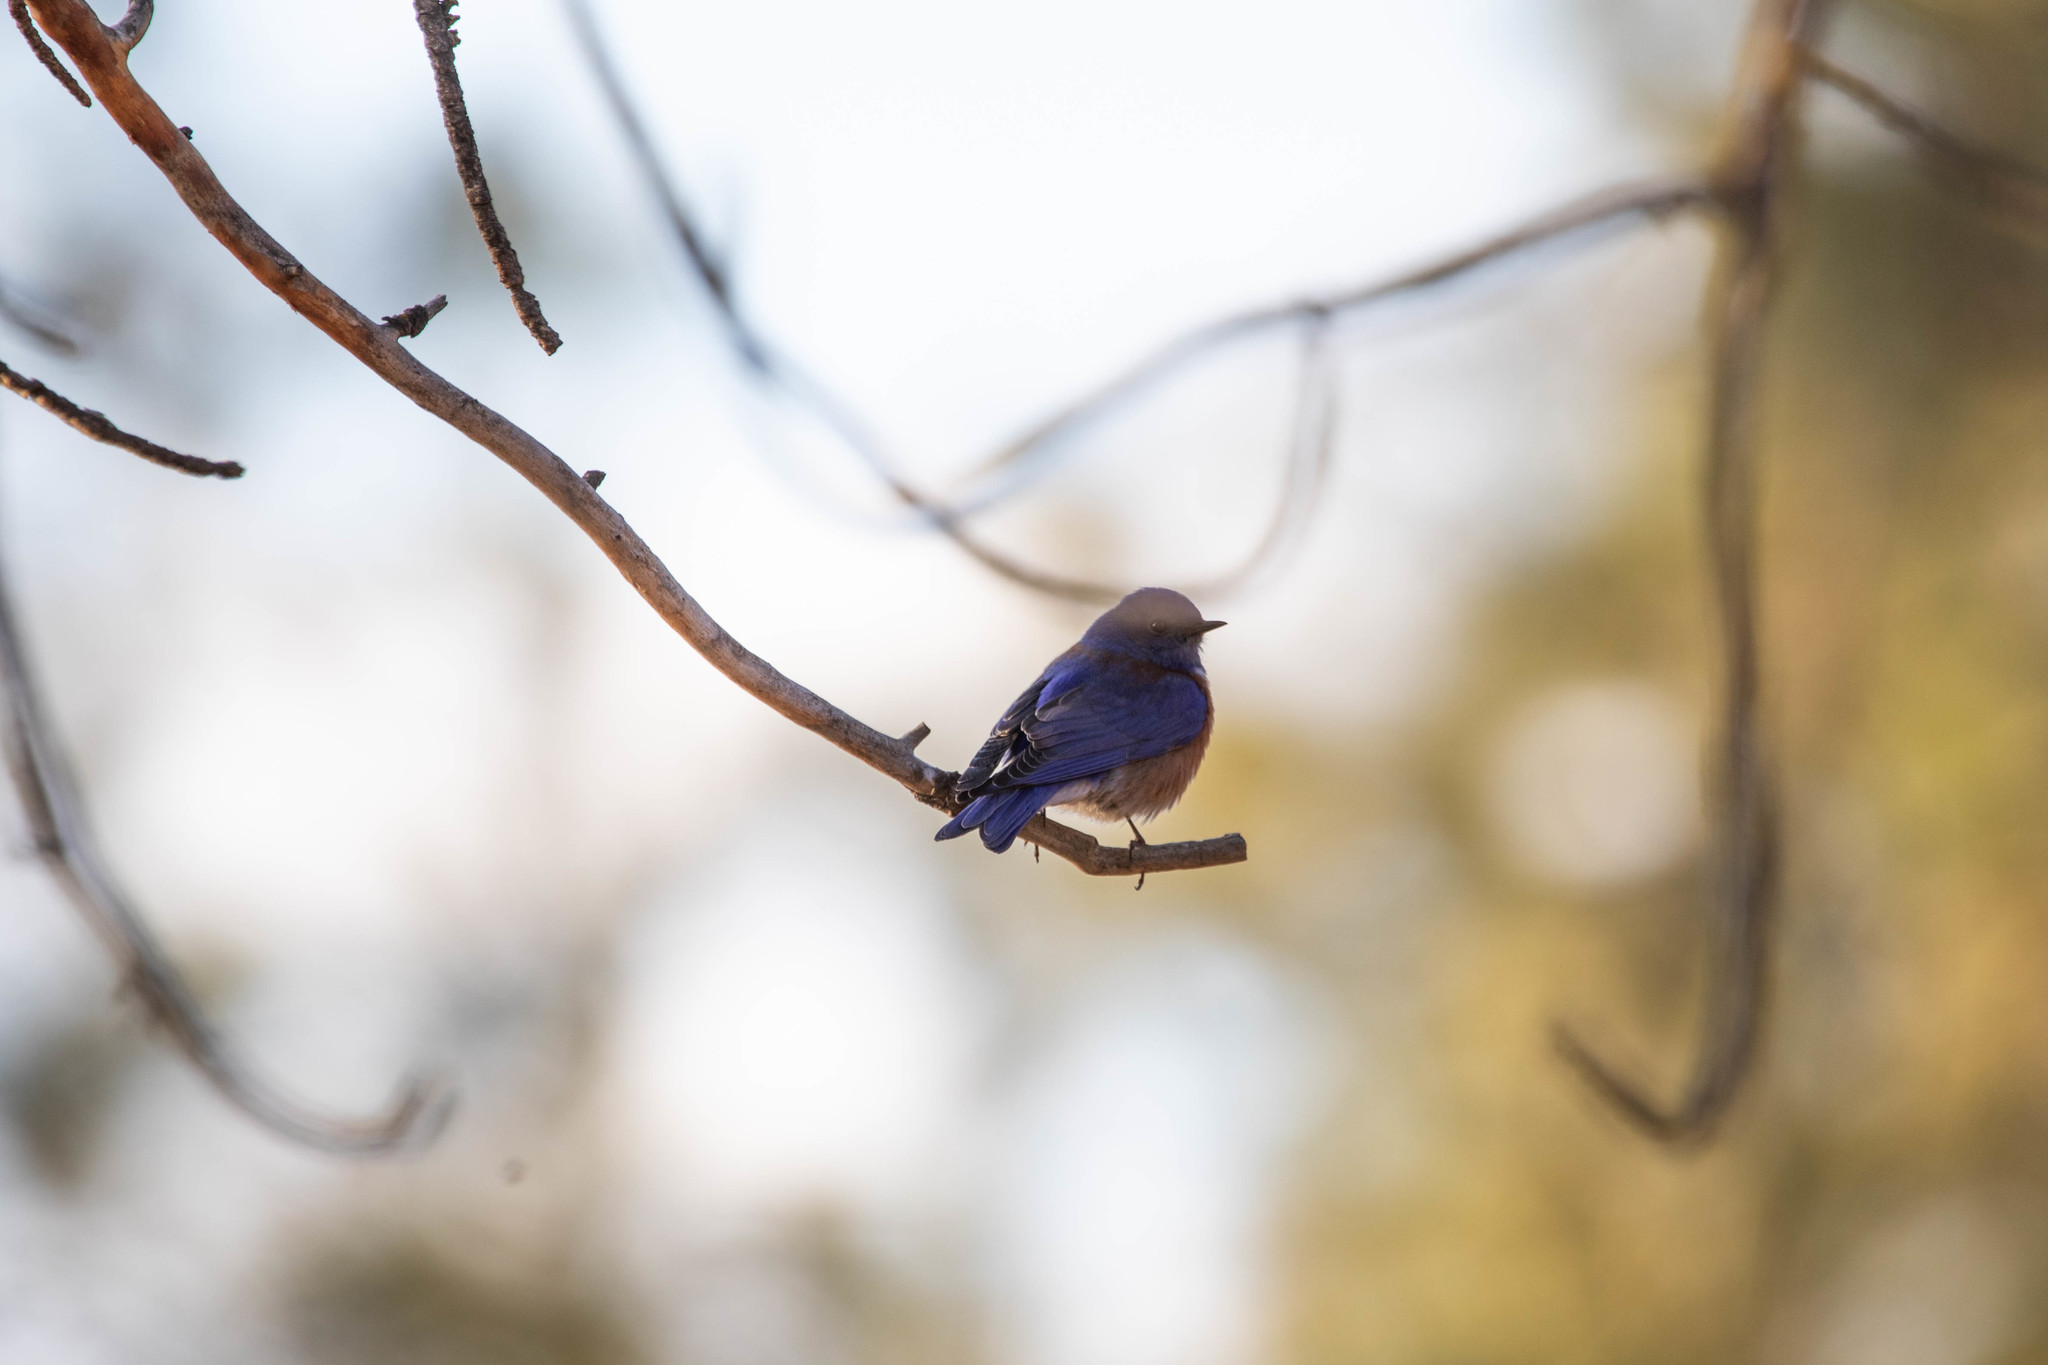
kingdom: Animalia
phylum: Chordata
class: Aves
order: Passeriformes
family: Turdidae
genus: Sialia
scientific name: Sialia mexicana
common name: Western bluebird
